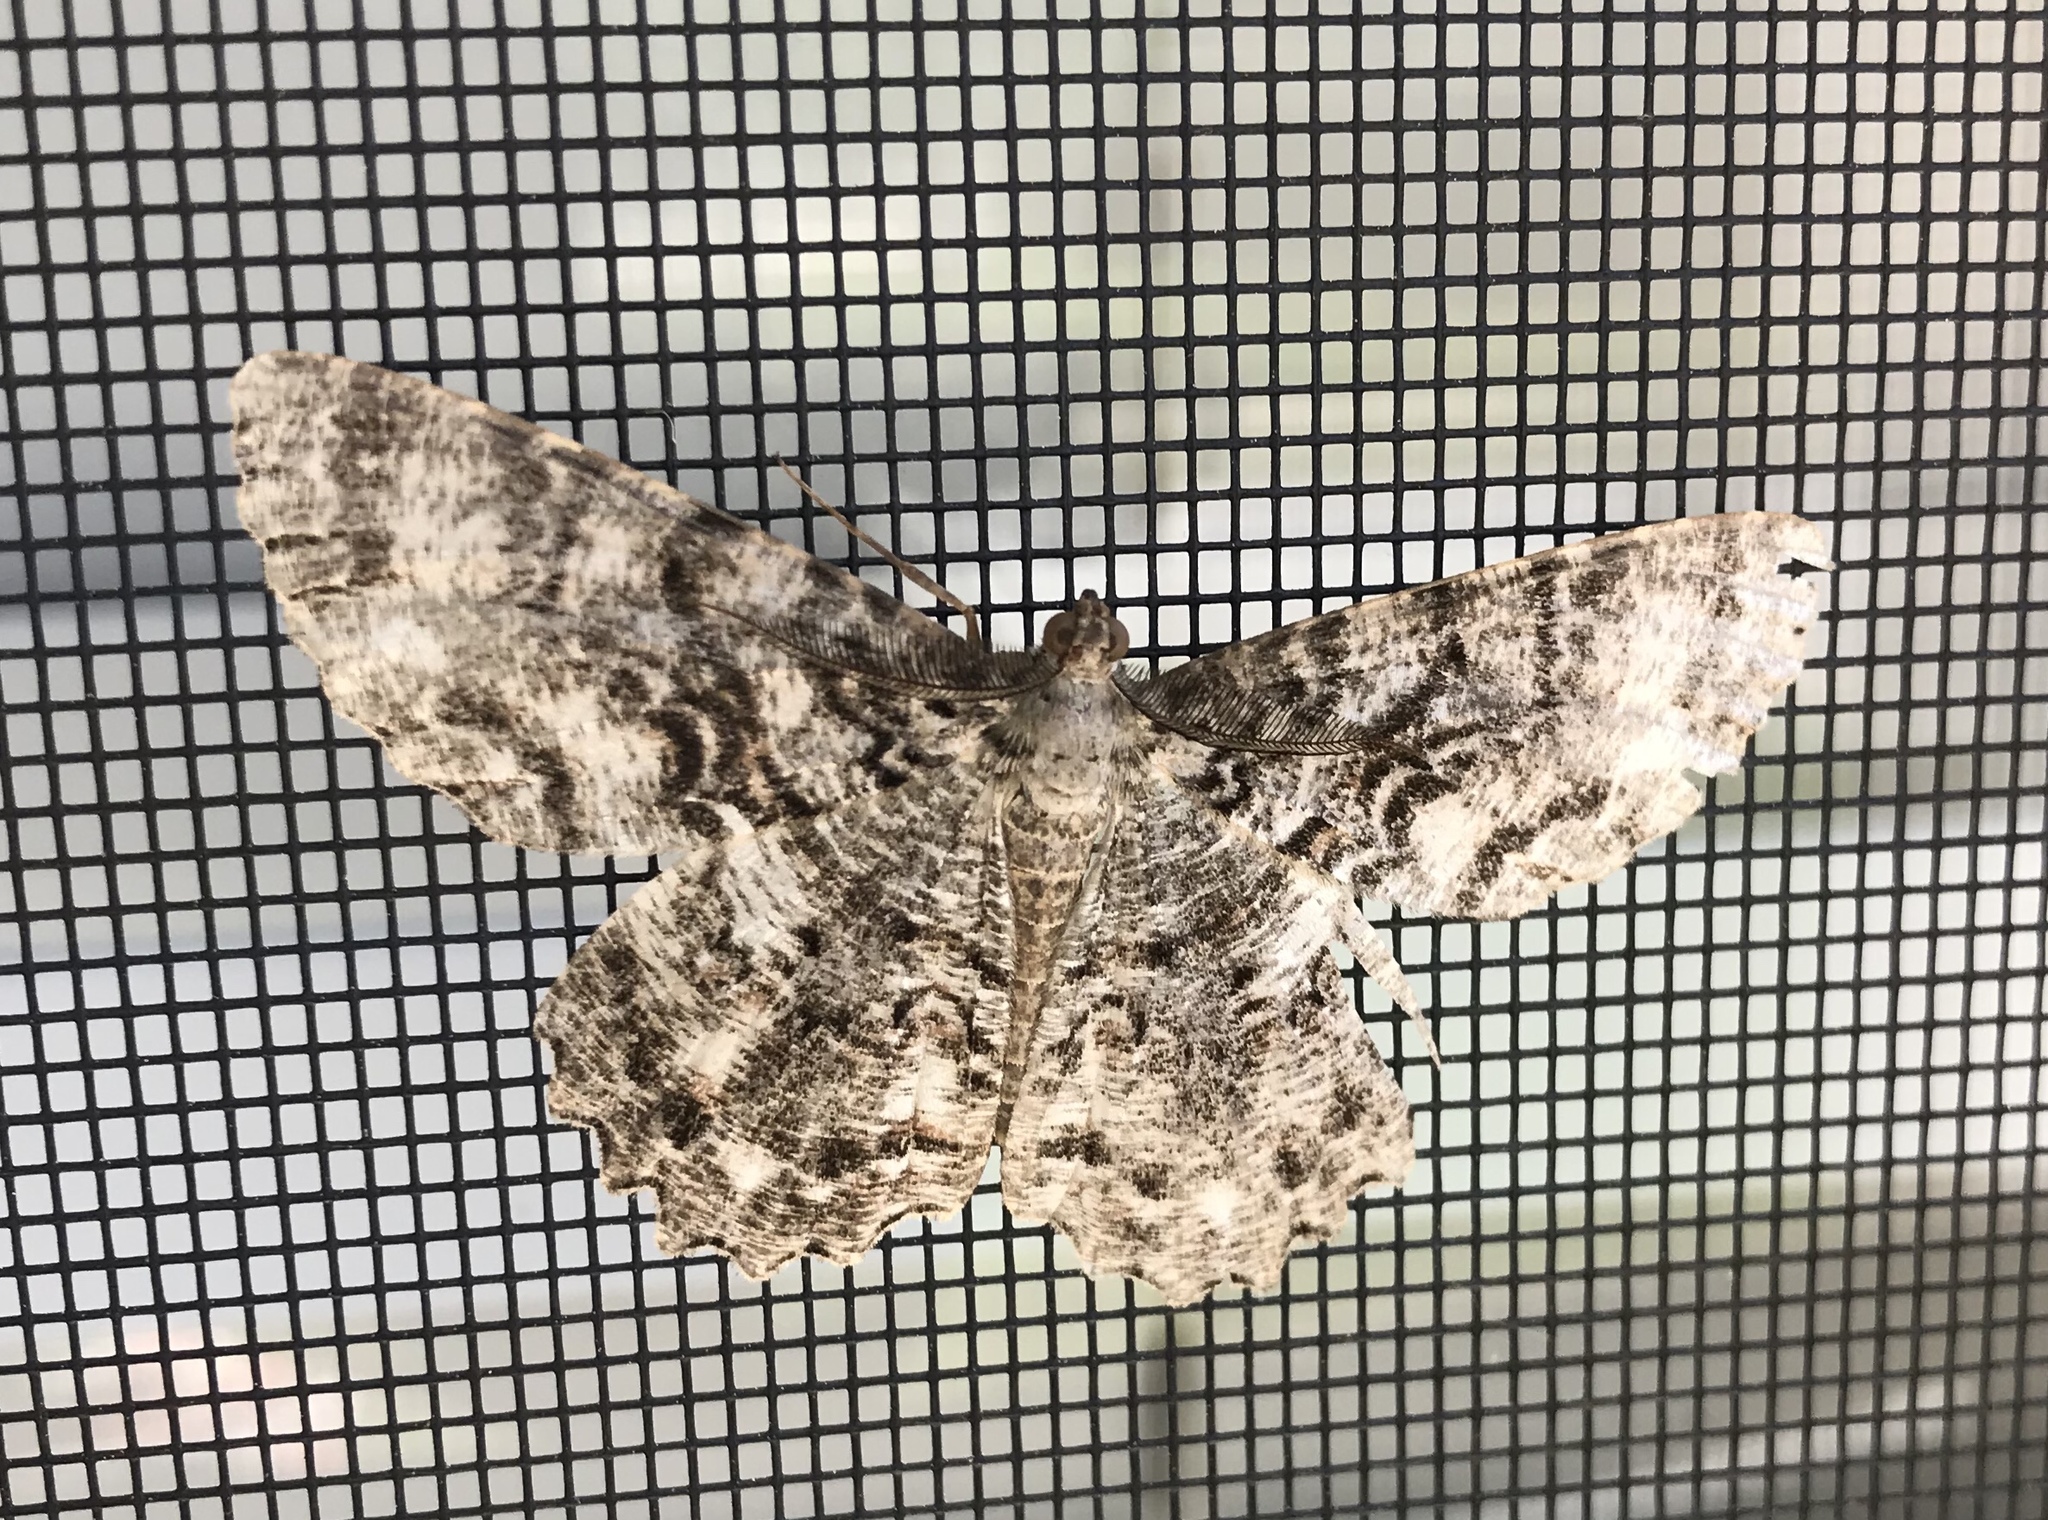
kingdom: Animalia
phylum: Arthropoda
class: Insecta
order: Lepidoptera
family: Geometridae
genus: Epimecis
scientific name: Epimecis hortaria
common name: Tulip-tree beauty
